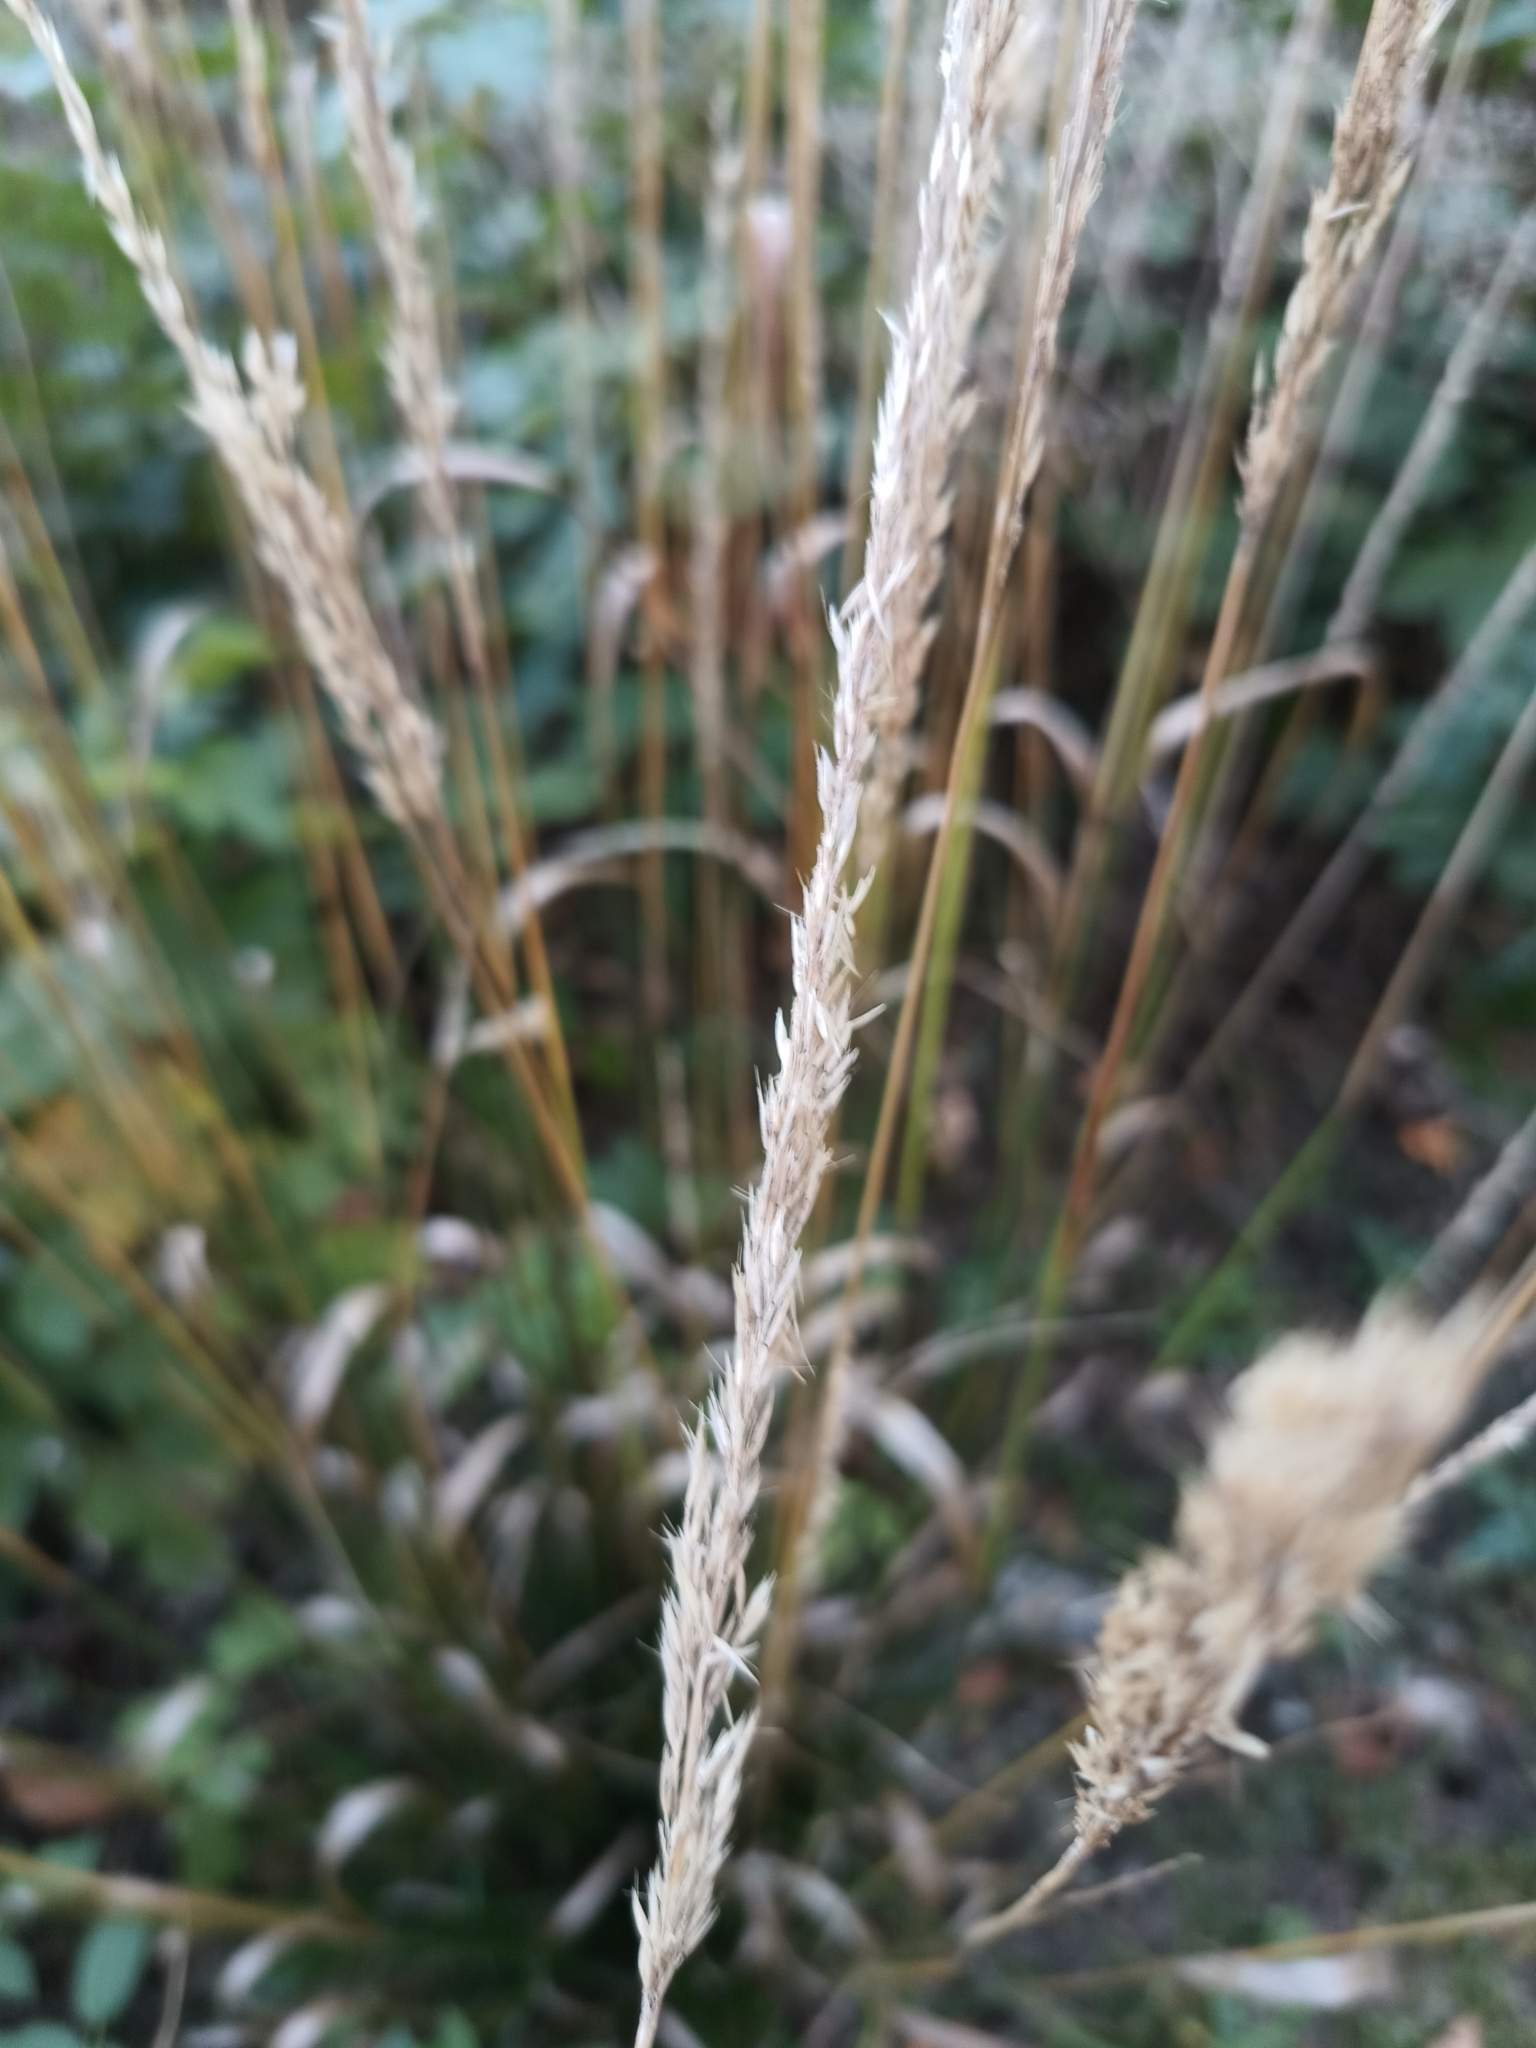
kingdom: Plantae
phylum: Tracheophyta
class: Liliopsida
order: Poales
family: Poaceae
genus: Calamagrostis
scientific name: Calamagrostis arundinacea
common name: Metskastik
